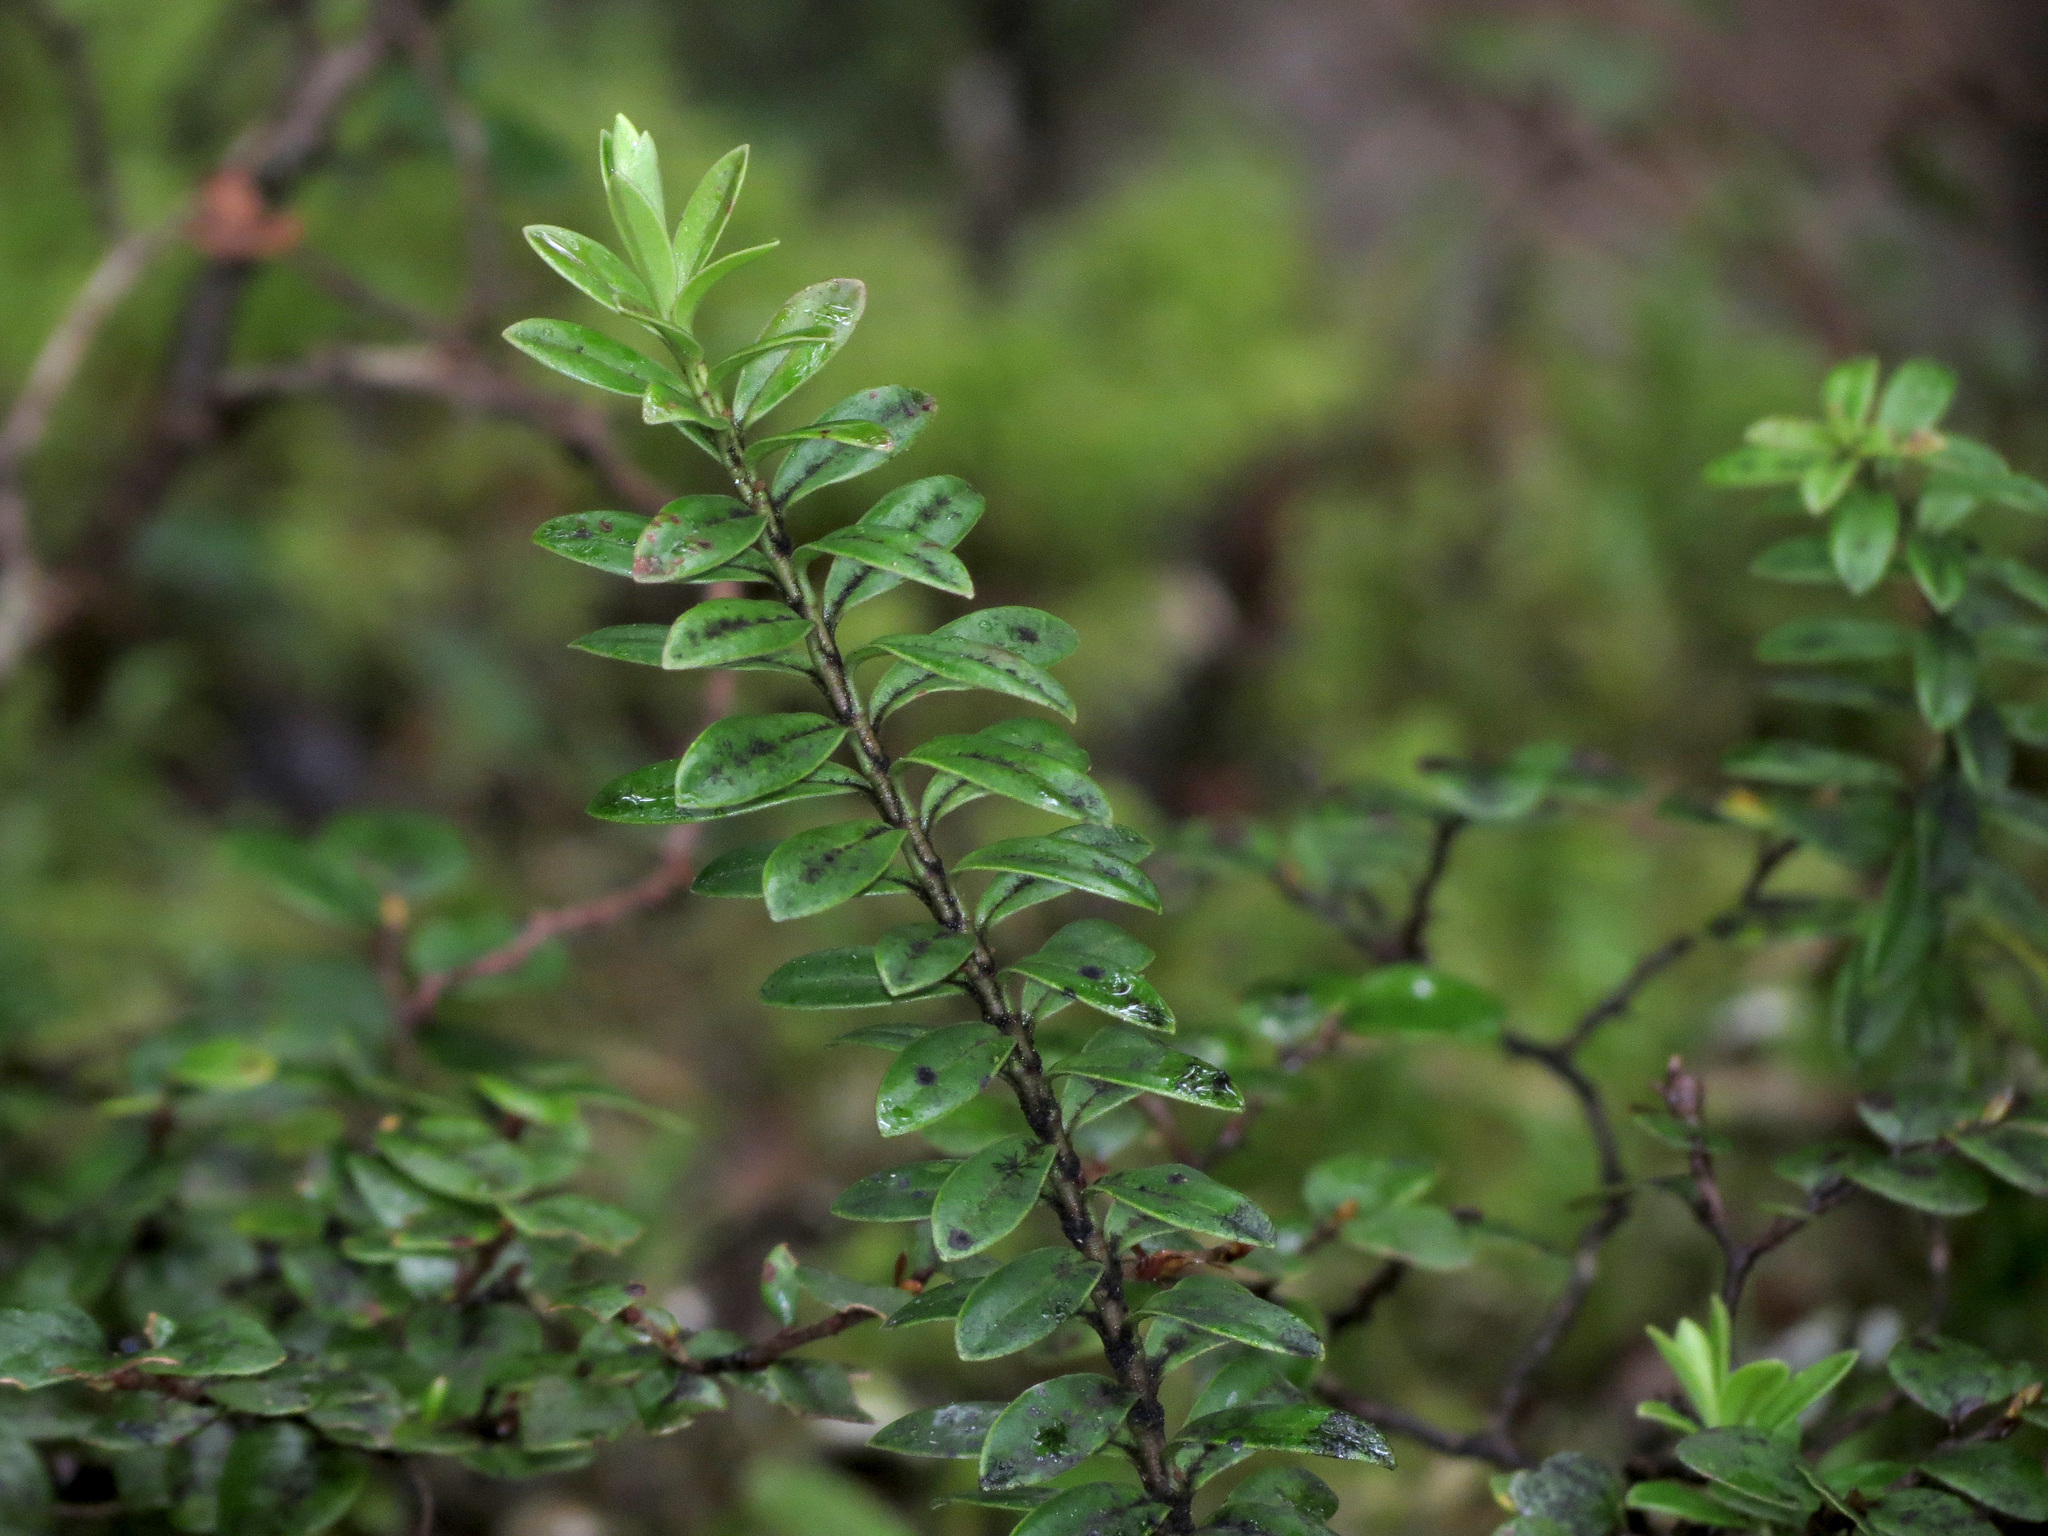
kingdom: Plantae
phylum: Tracheophyta
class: Magnoliopsida
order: Lamiales
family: Plantaginaceae
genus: Veronica
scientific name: Veronica canterburiensis
